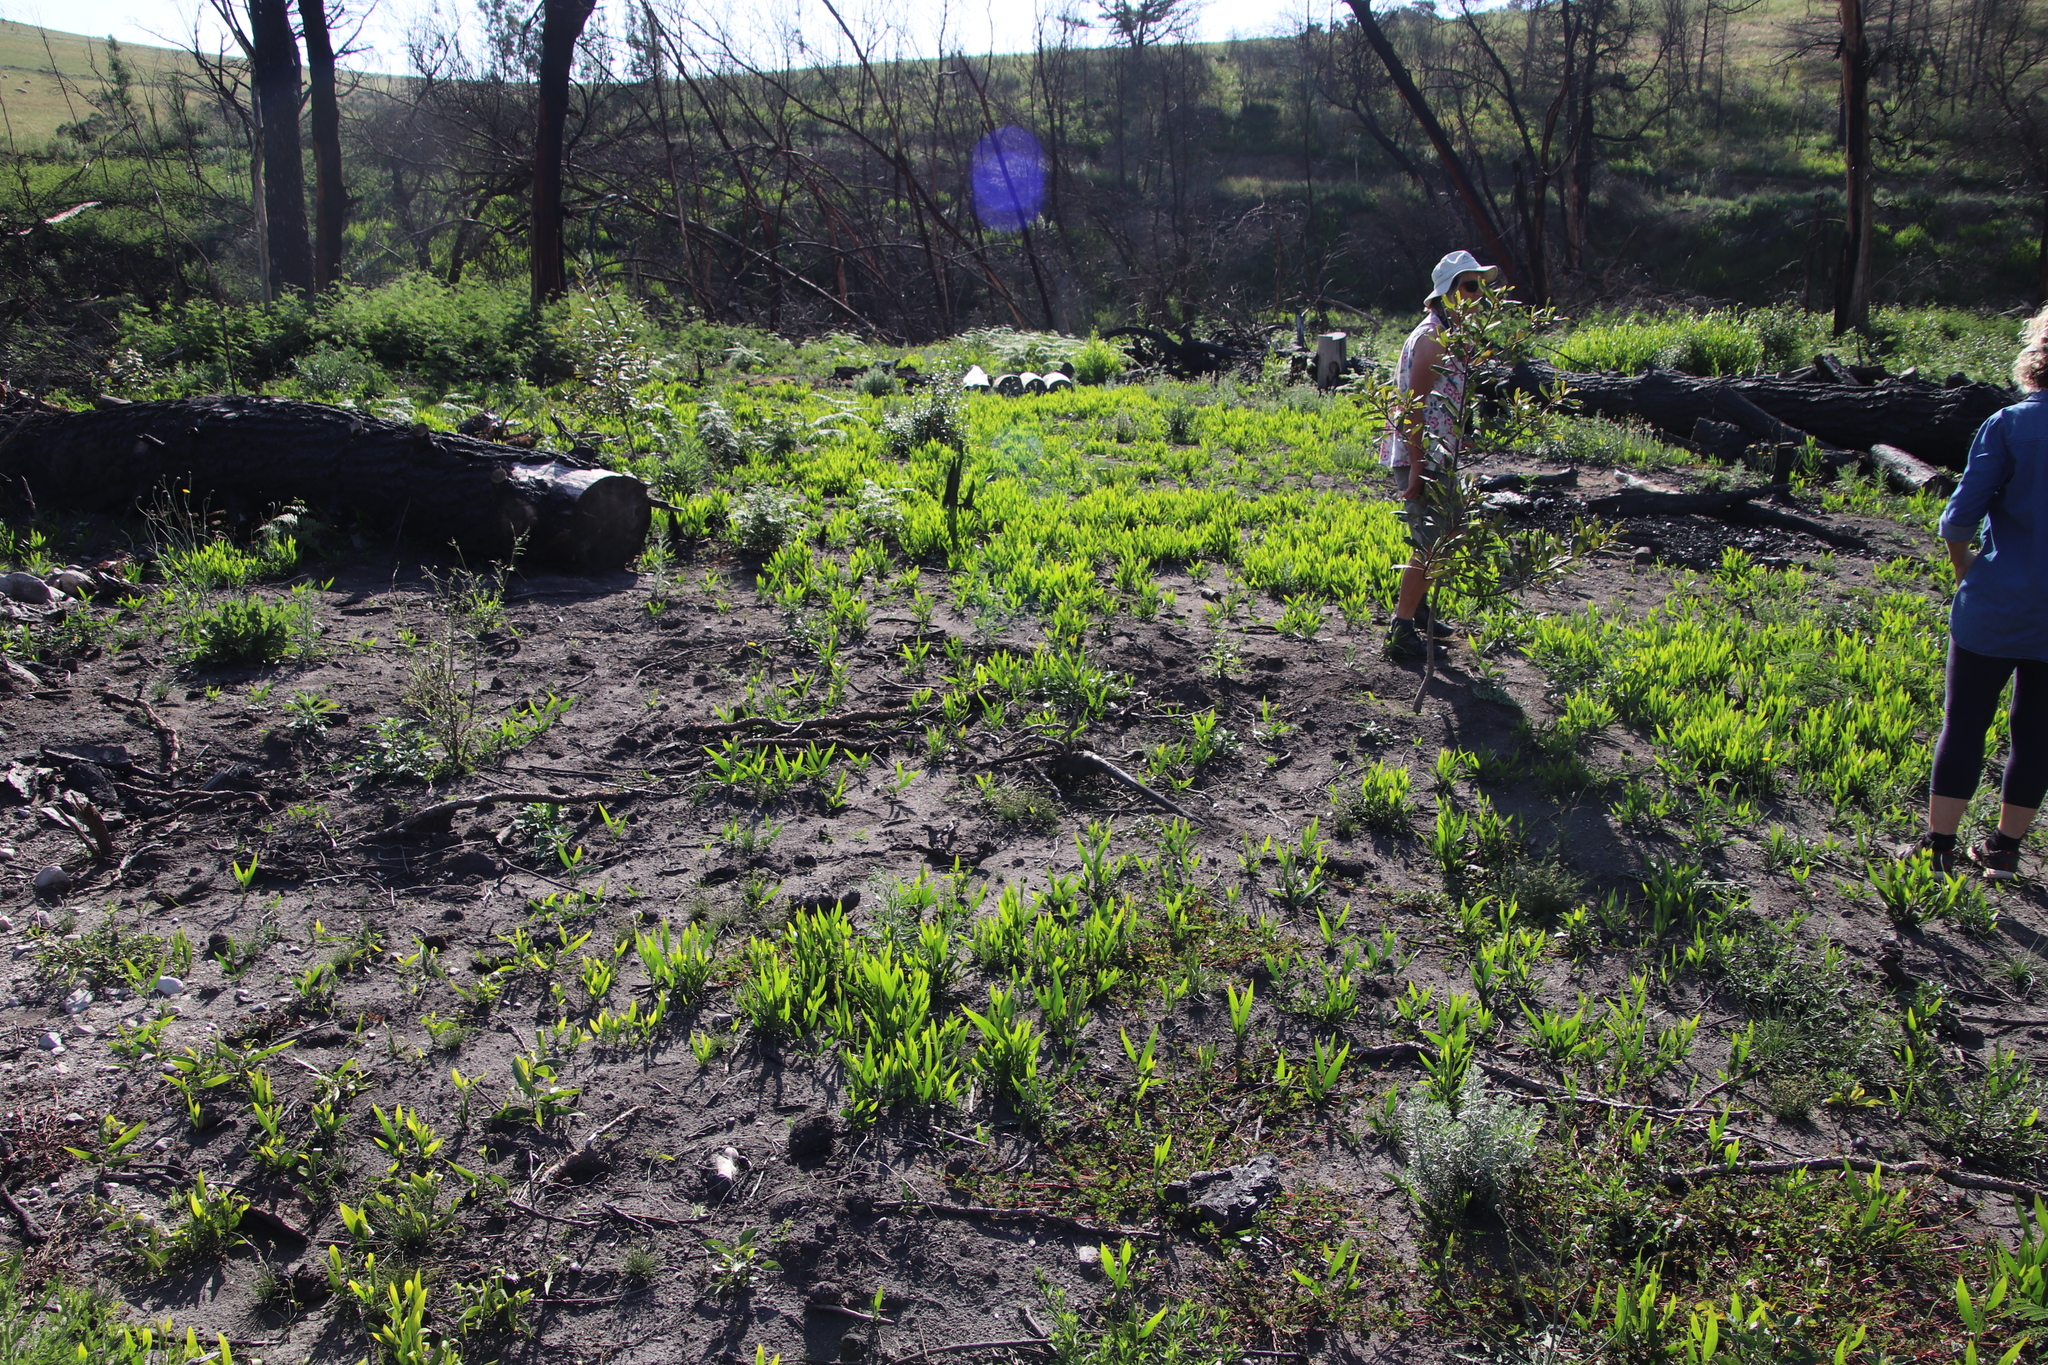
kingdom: Plantae
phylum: Tracheophyta
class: Magnoliopsida
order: Fabales
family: Fabaceae
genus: Acacia
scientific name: Acacia longifolia
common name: Sydney golden wattle
